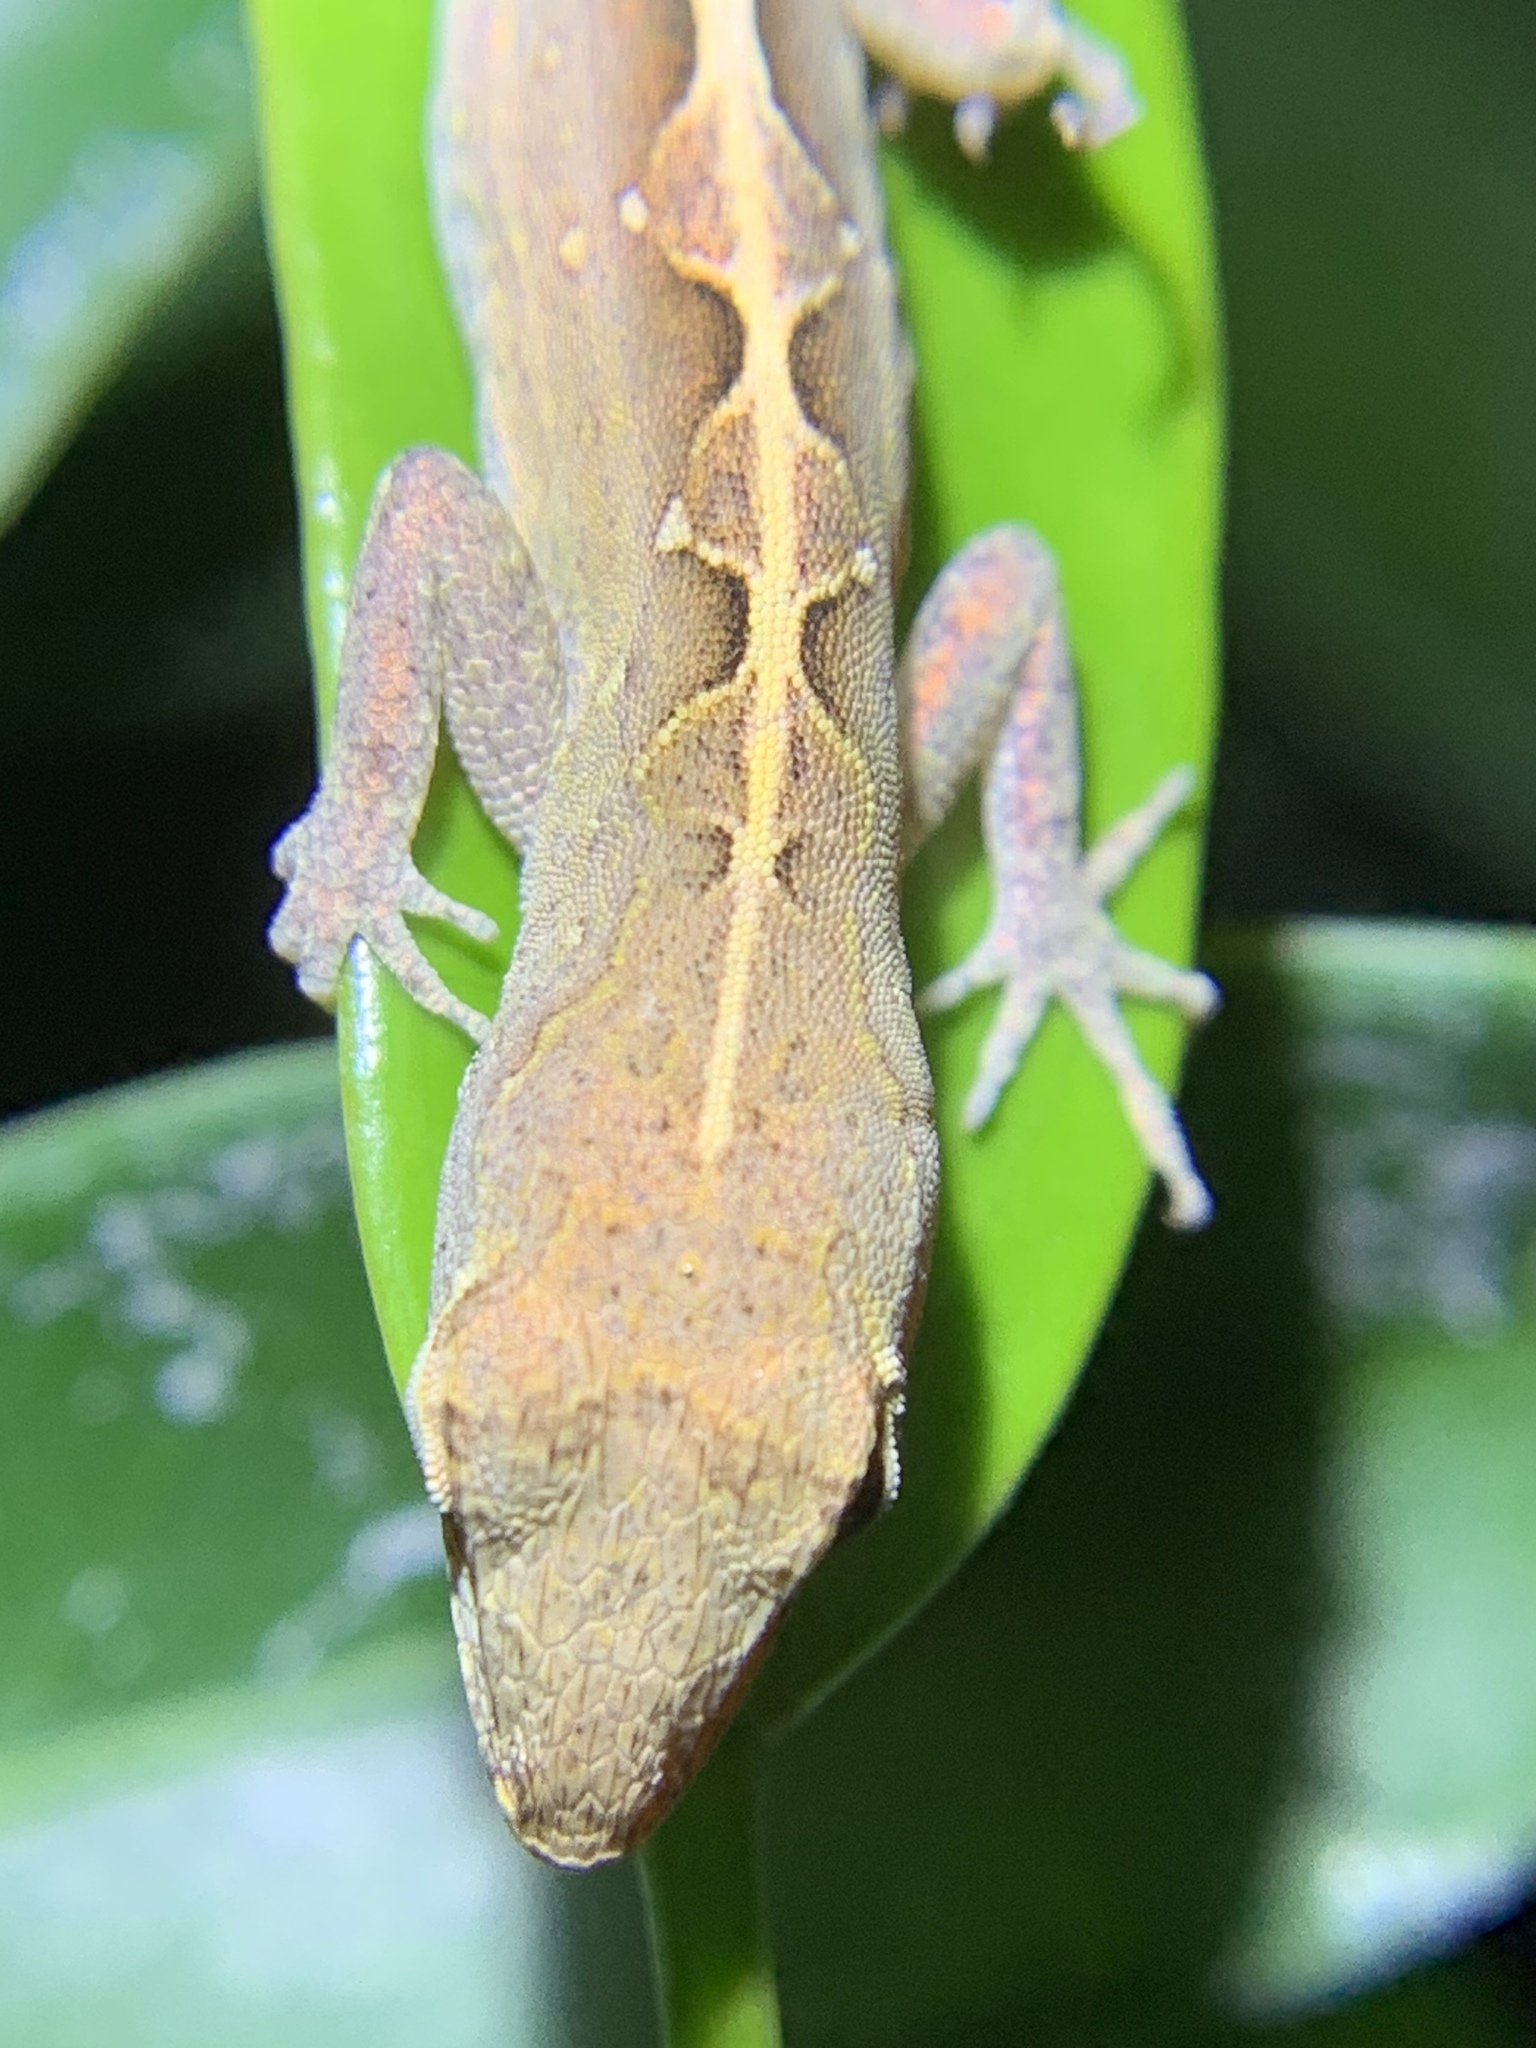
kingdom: Animalia
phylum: Chordata
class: Squamata
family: Dactyloidae
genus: Anolis
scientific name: Anolis sagrei
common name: Brown anole
